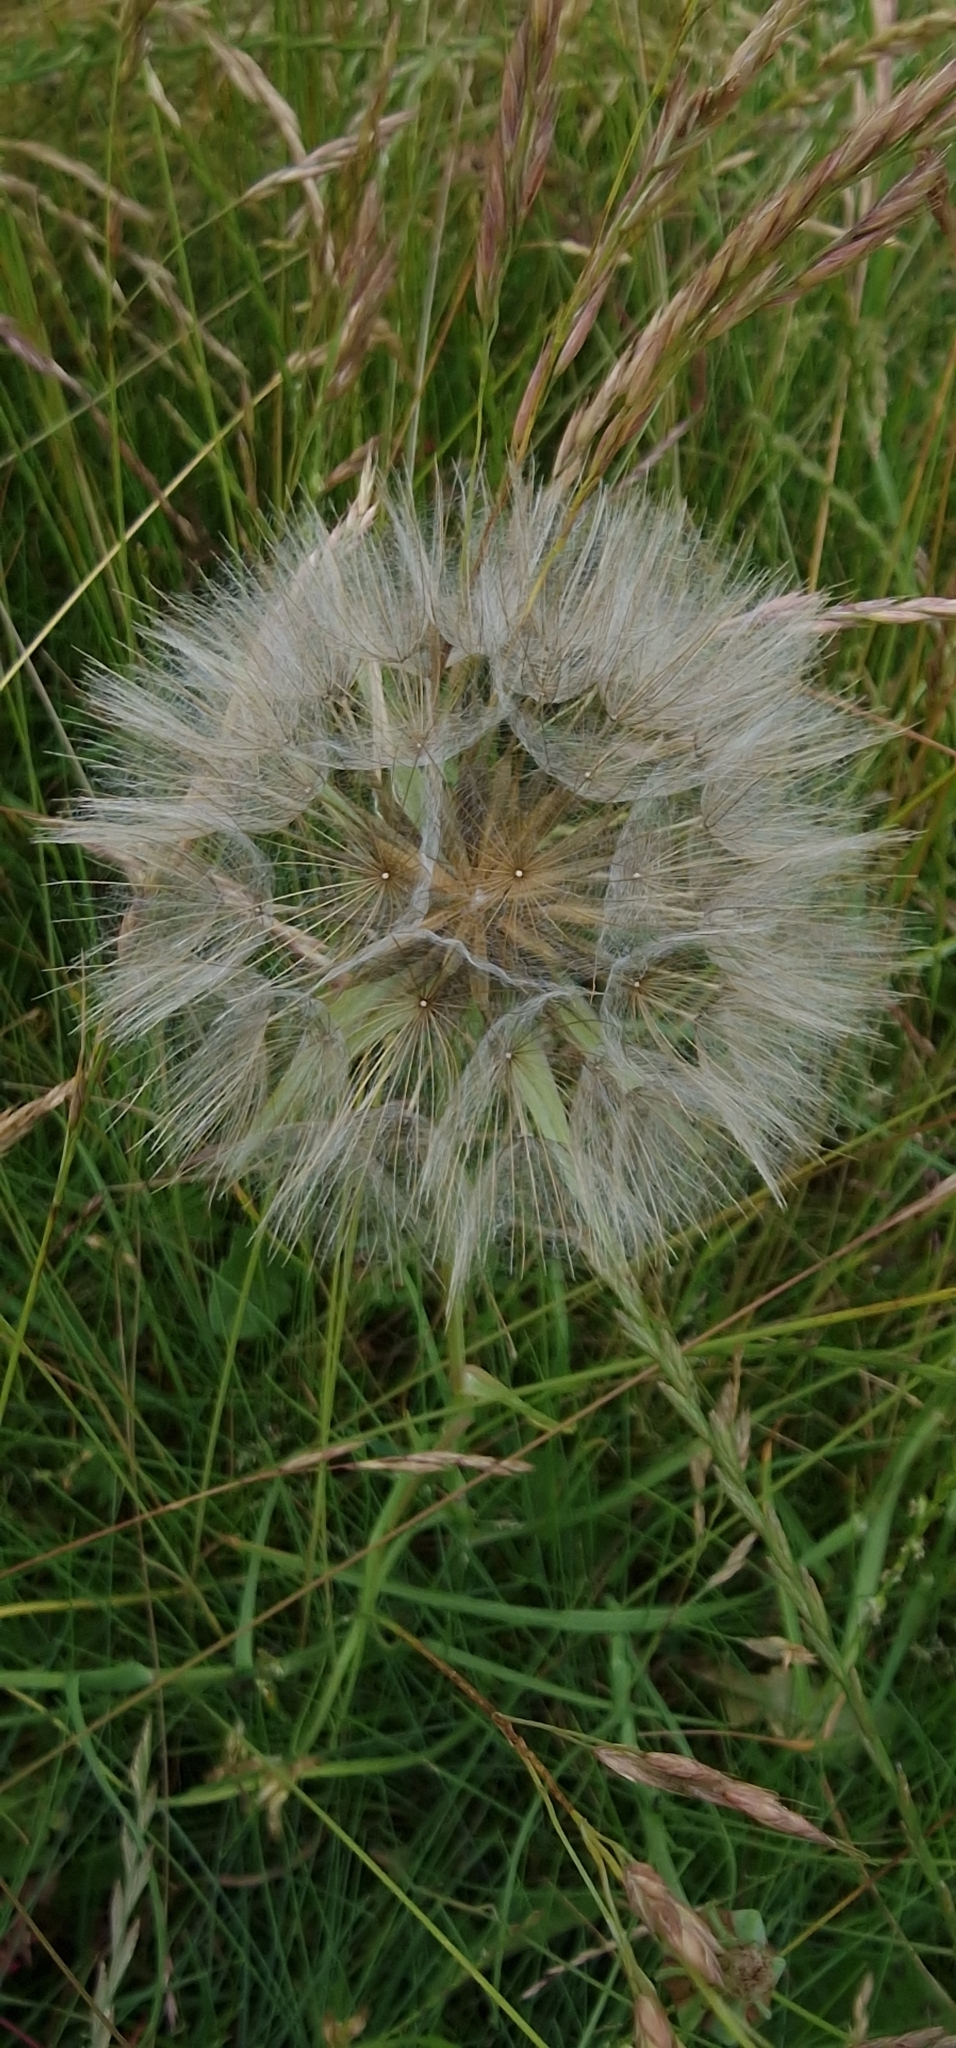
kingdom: Plantae
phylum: Tracheophyta
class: Magnoliopsida
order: Asterales
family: Asteraceae
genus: Tragopogon
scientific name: Tragopogon pratensis
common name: Goat's-beard
